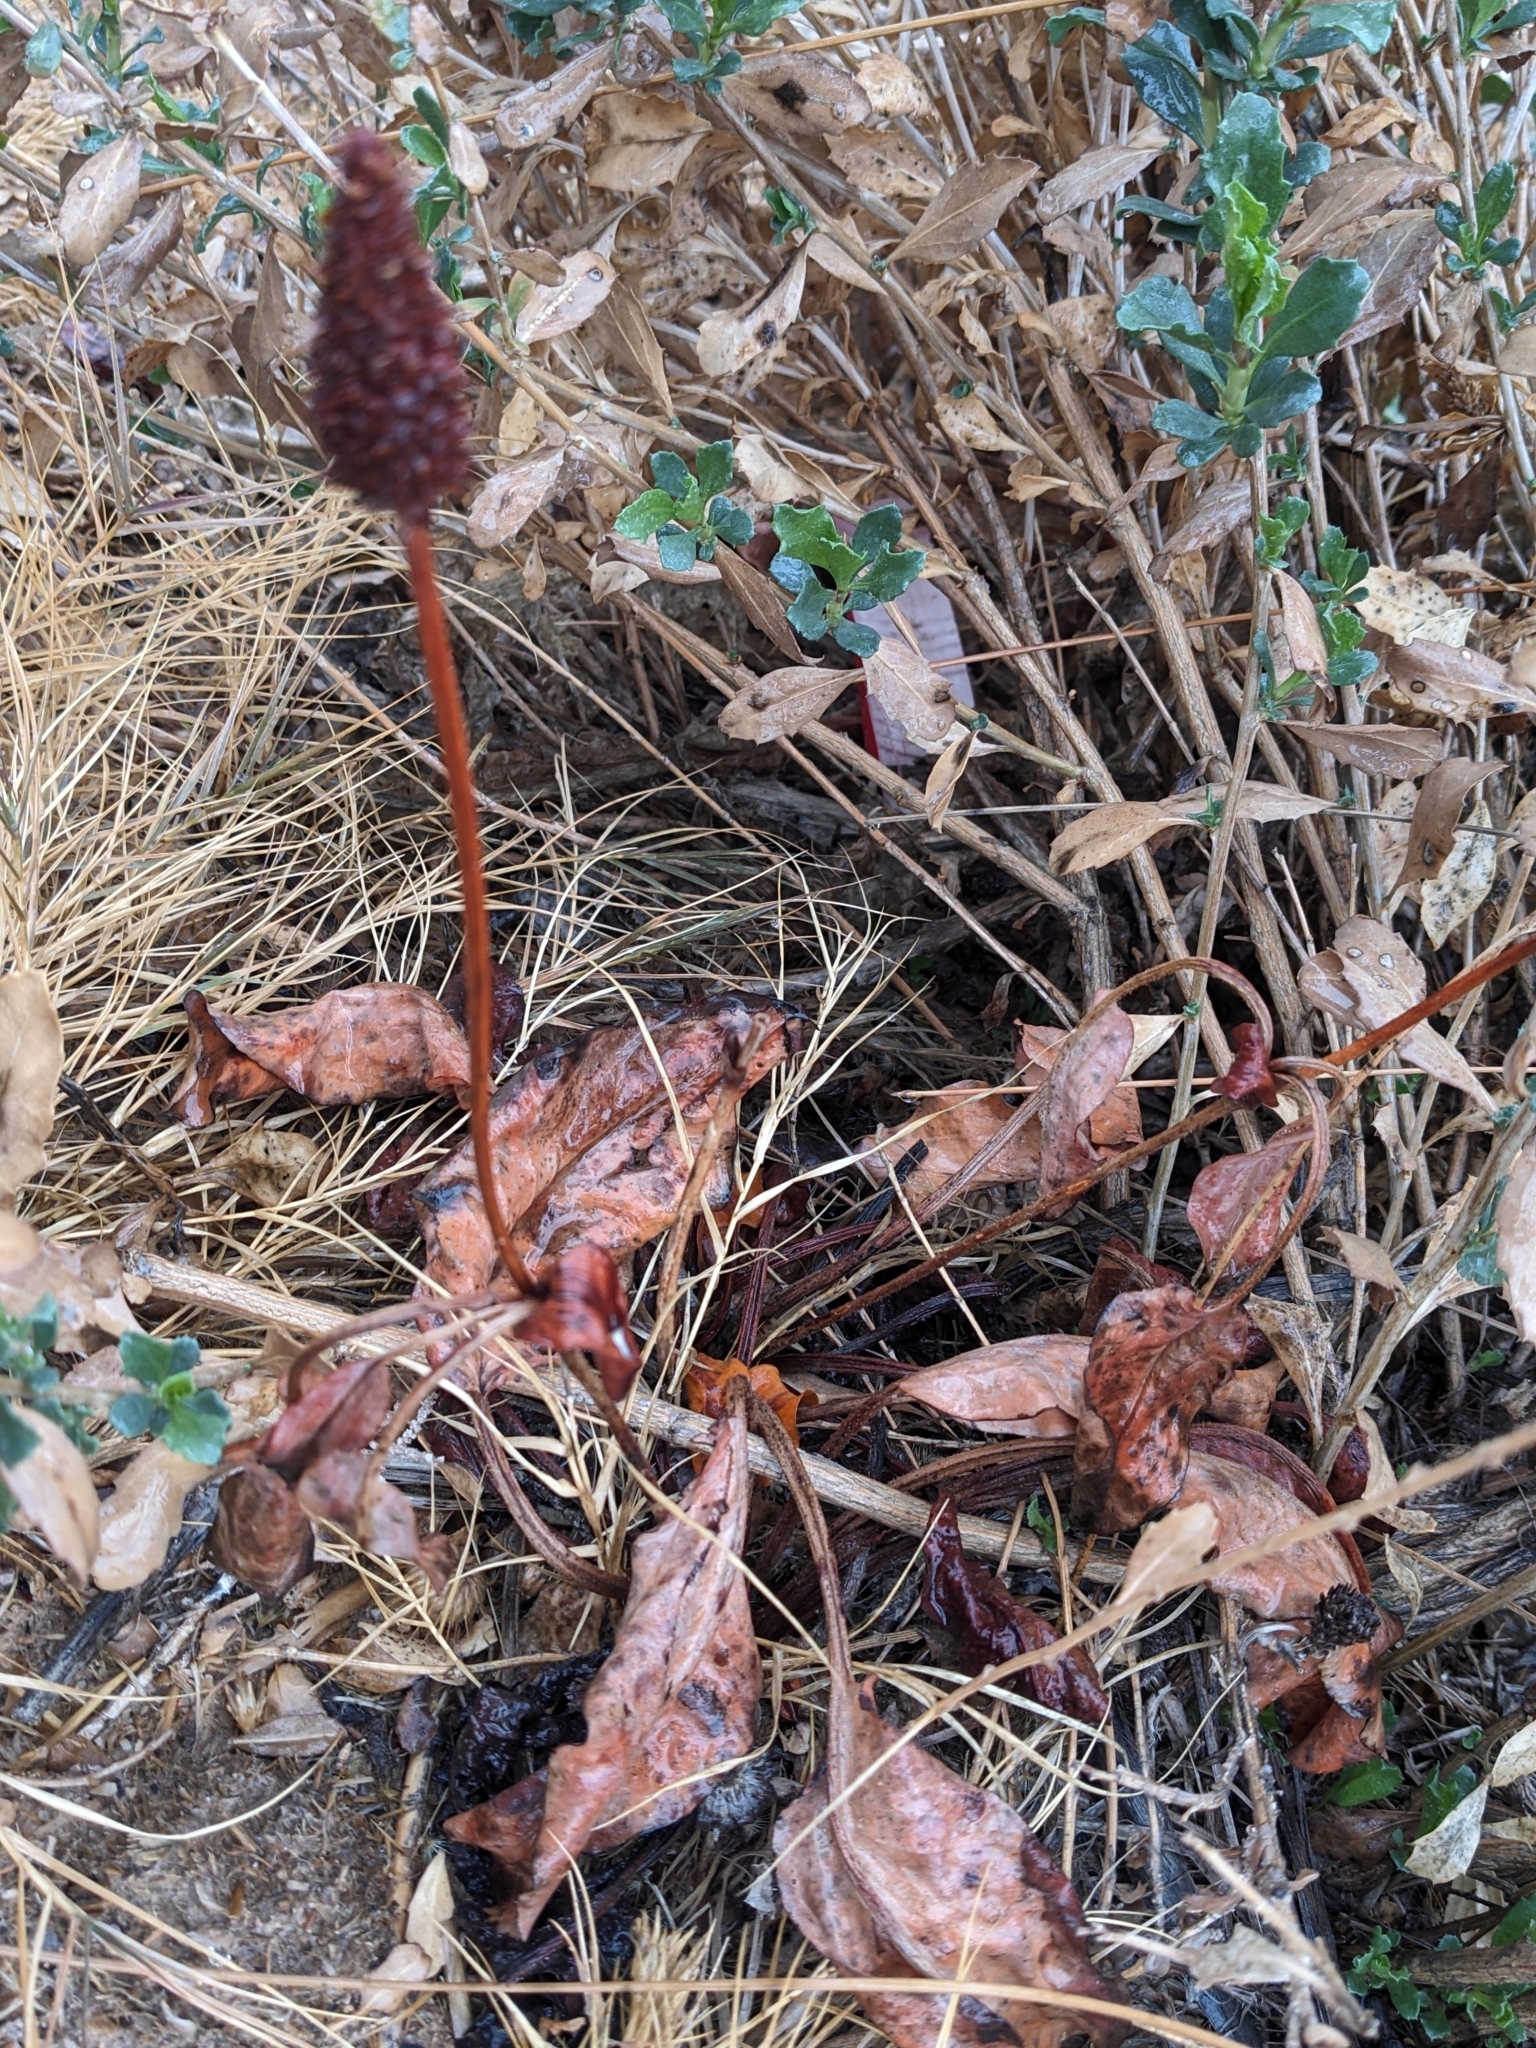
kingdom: Plantae
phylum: Tracheophyta
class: Magnoliopsida
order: Piperales
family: Saururaceae
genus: Anemopsis
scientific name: Anemopsis californica
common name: Apache-beads
